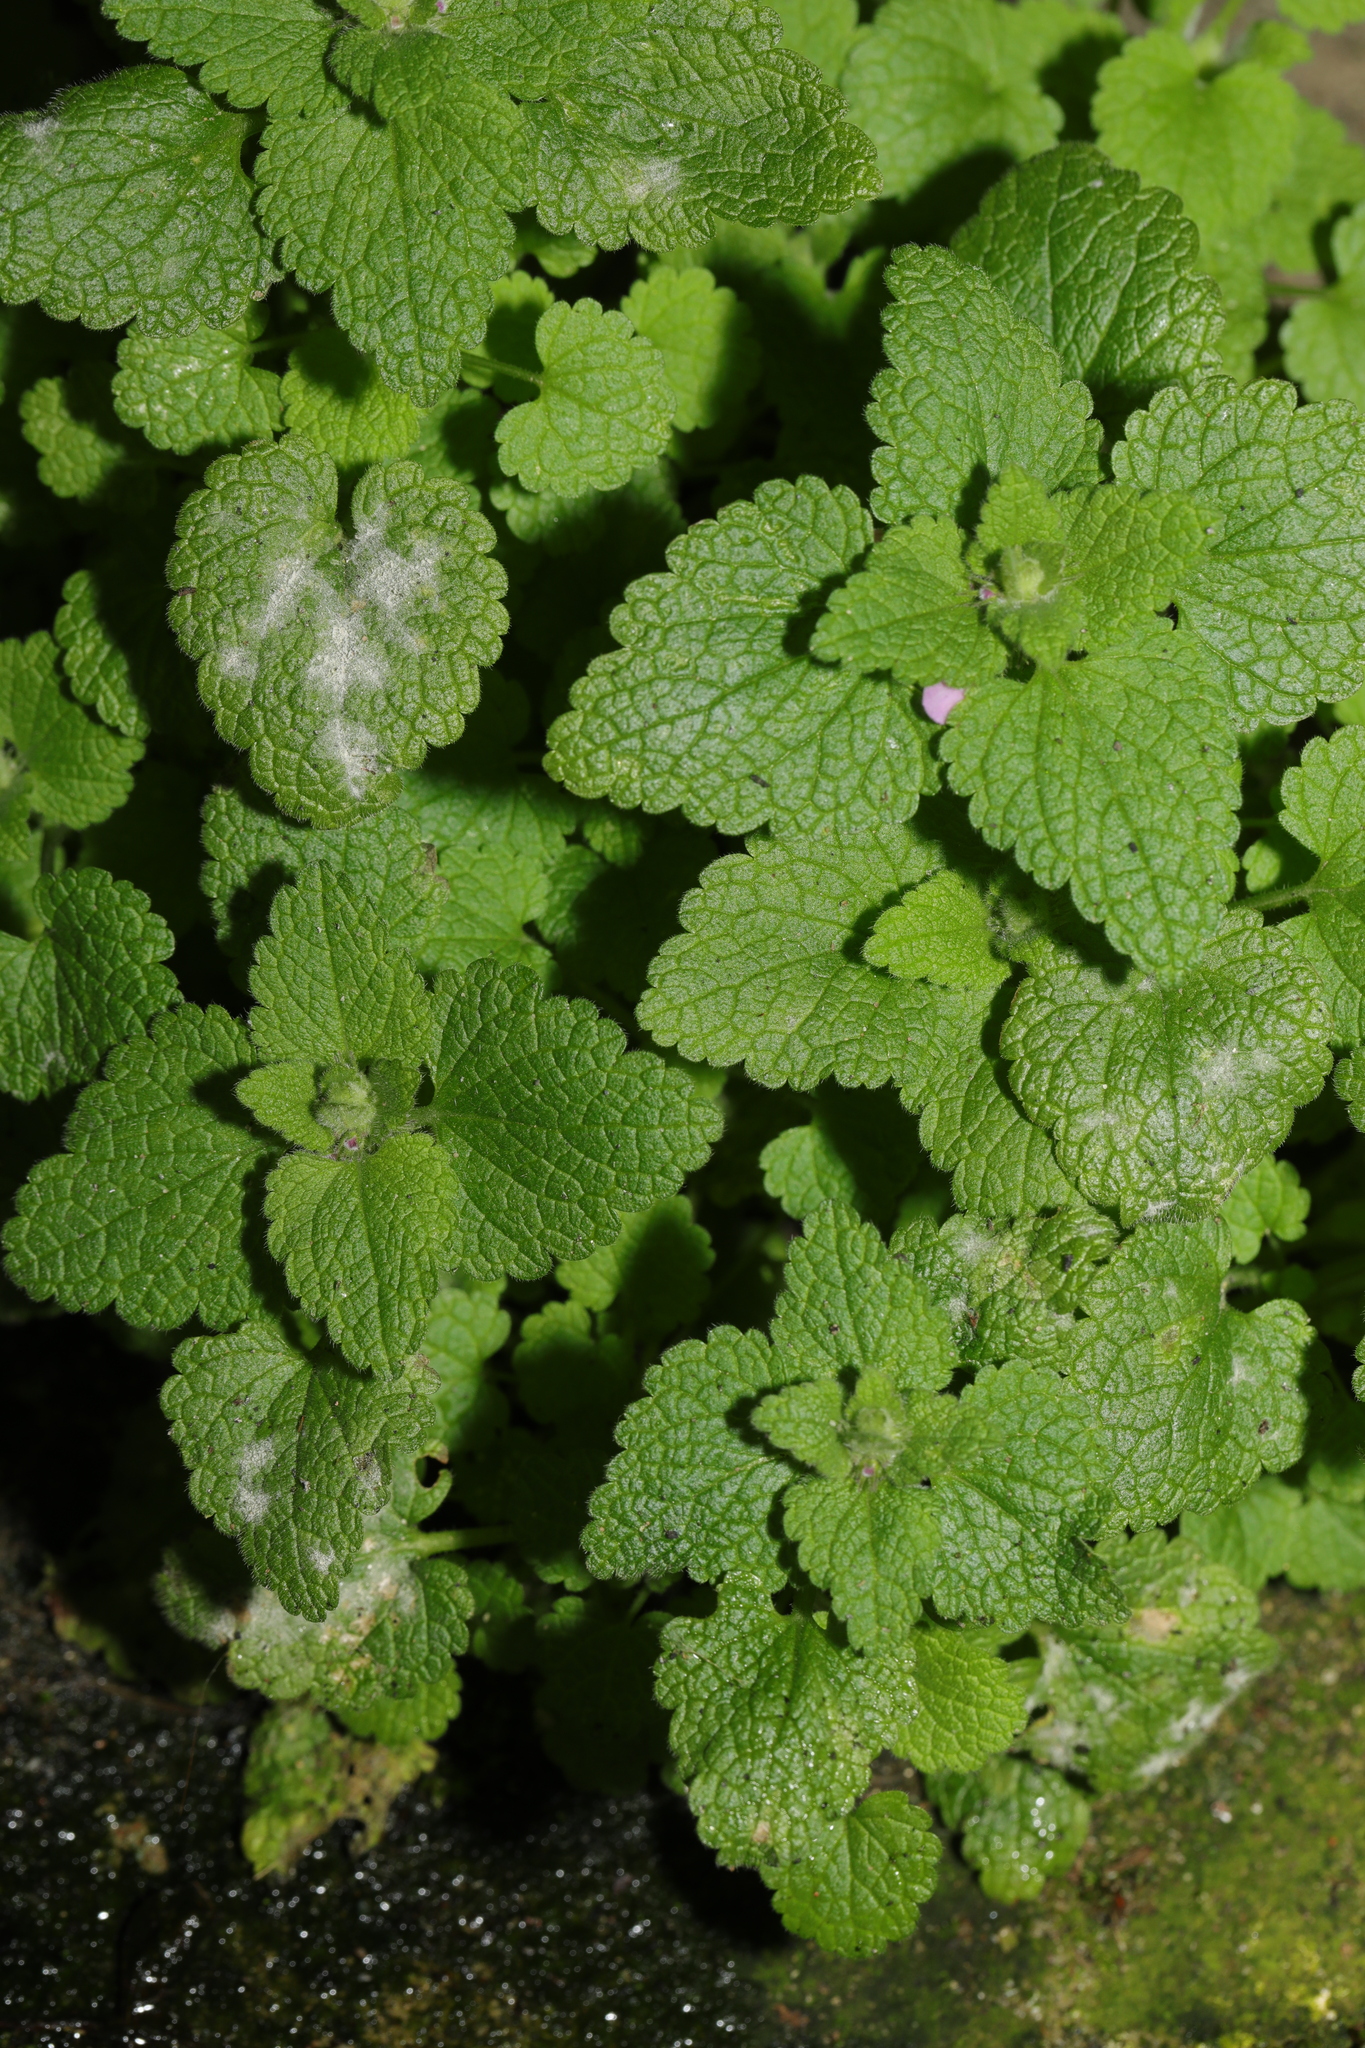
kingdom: Plantae
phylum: Tracheophyta
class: Magnoliopsida
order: Lamiales
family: Lamiaceae
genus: Lamium
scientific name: Lamium purpureum
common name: Red dead-nettle
